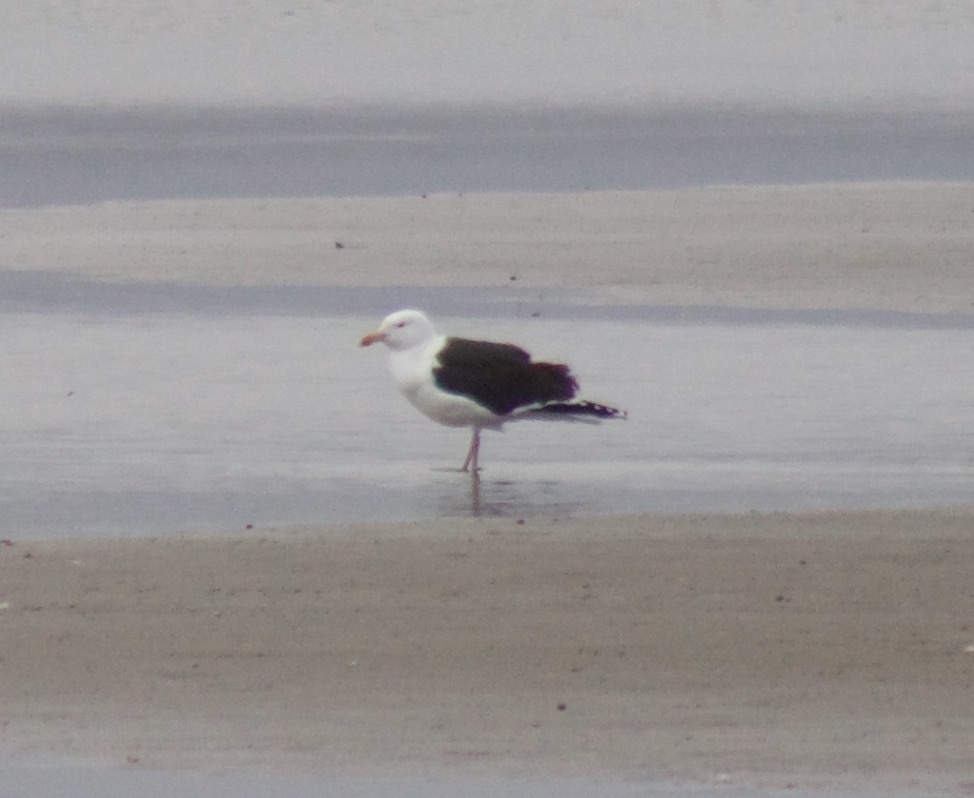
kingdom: Animalia
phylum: Chordata
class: Aves
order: Charadriiformes
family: Laridae
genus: Larus
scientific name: Larus marinus
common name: Great black-backed gull
